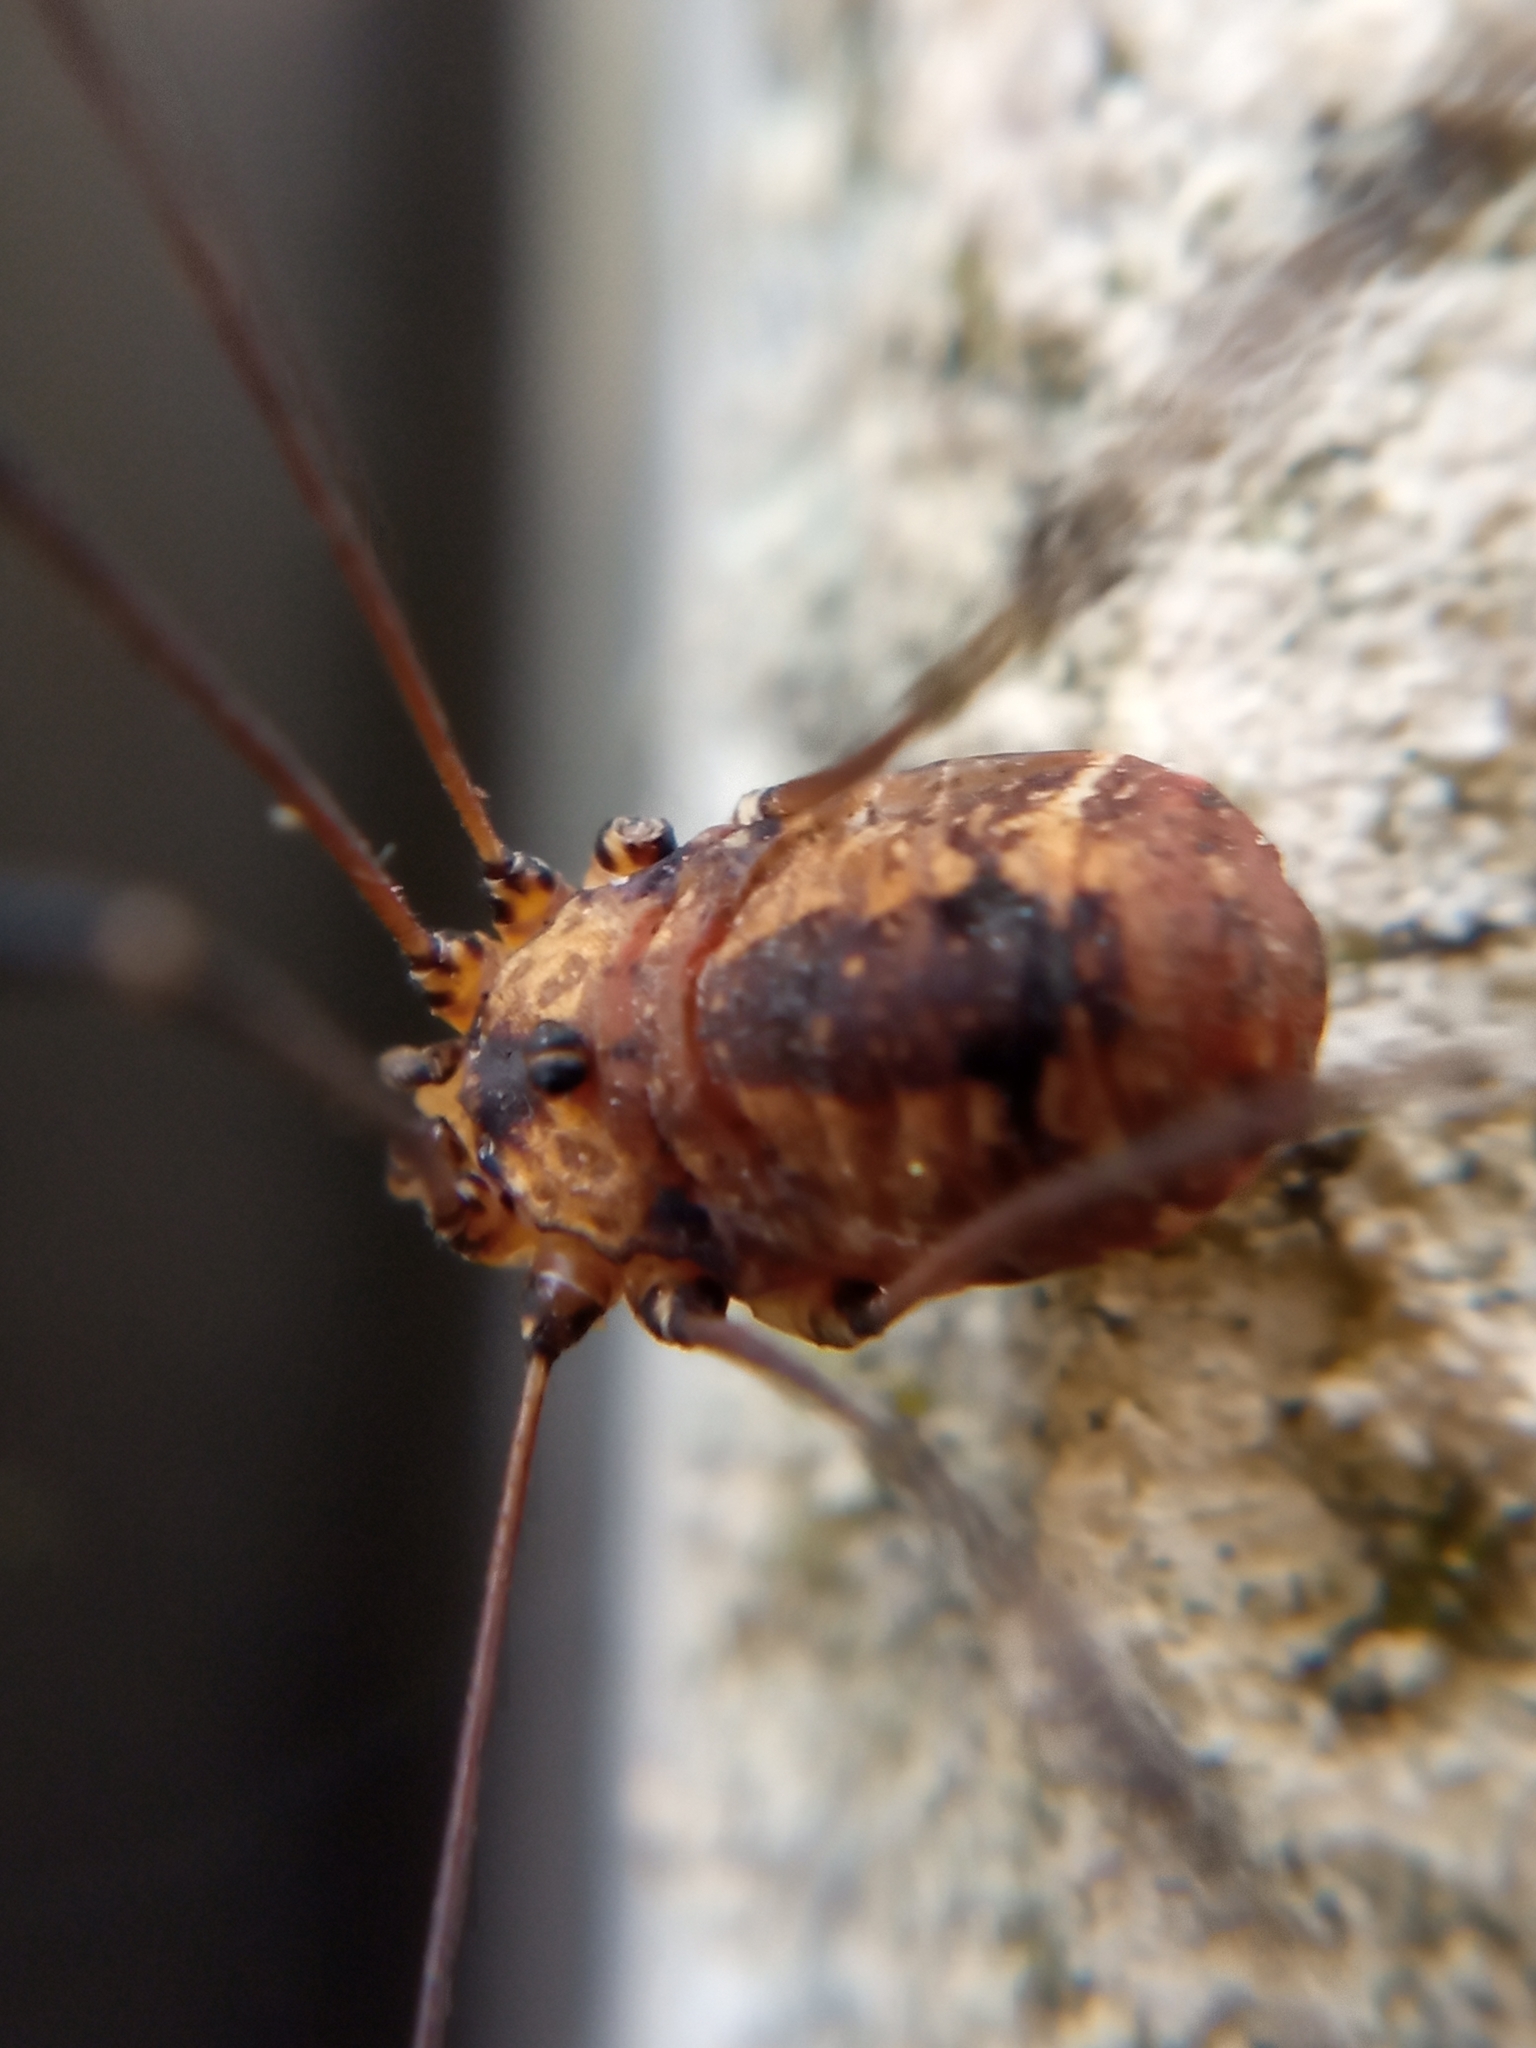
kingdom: Animalia
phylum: Arthropoda
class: Arachnida
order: Opiliones
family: Sclerosomatidae
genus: Leiobunum
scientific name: Leiobunum rotundum
